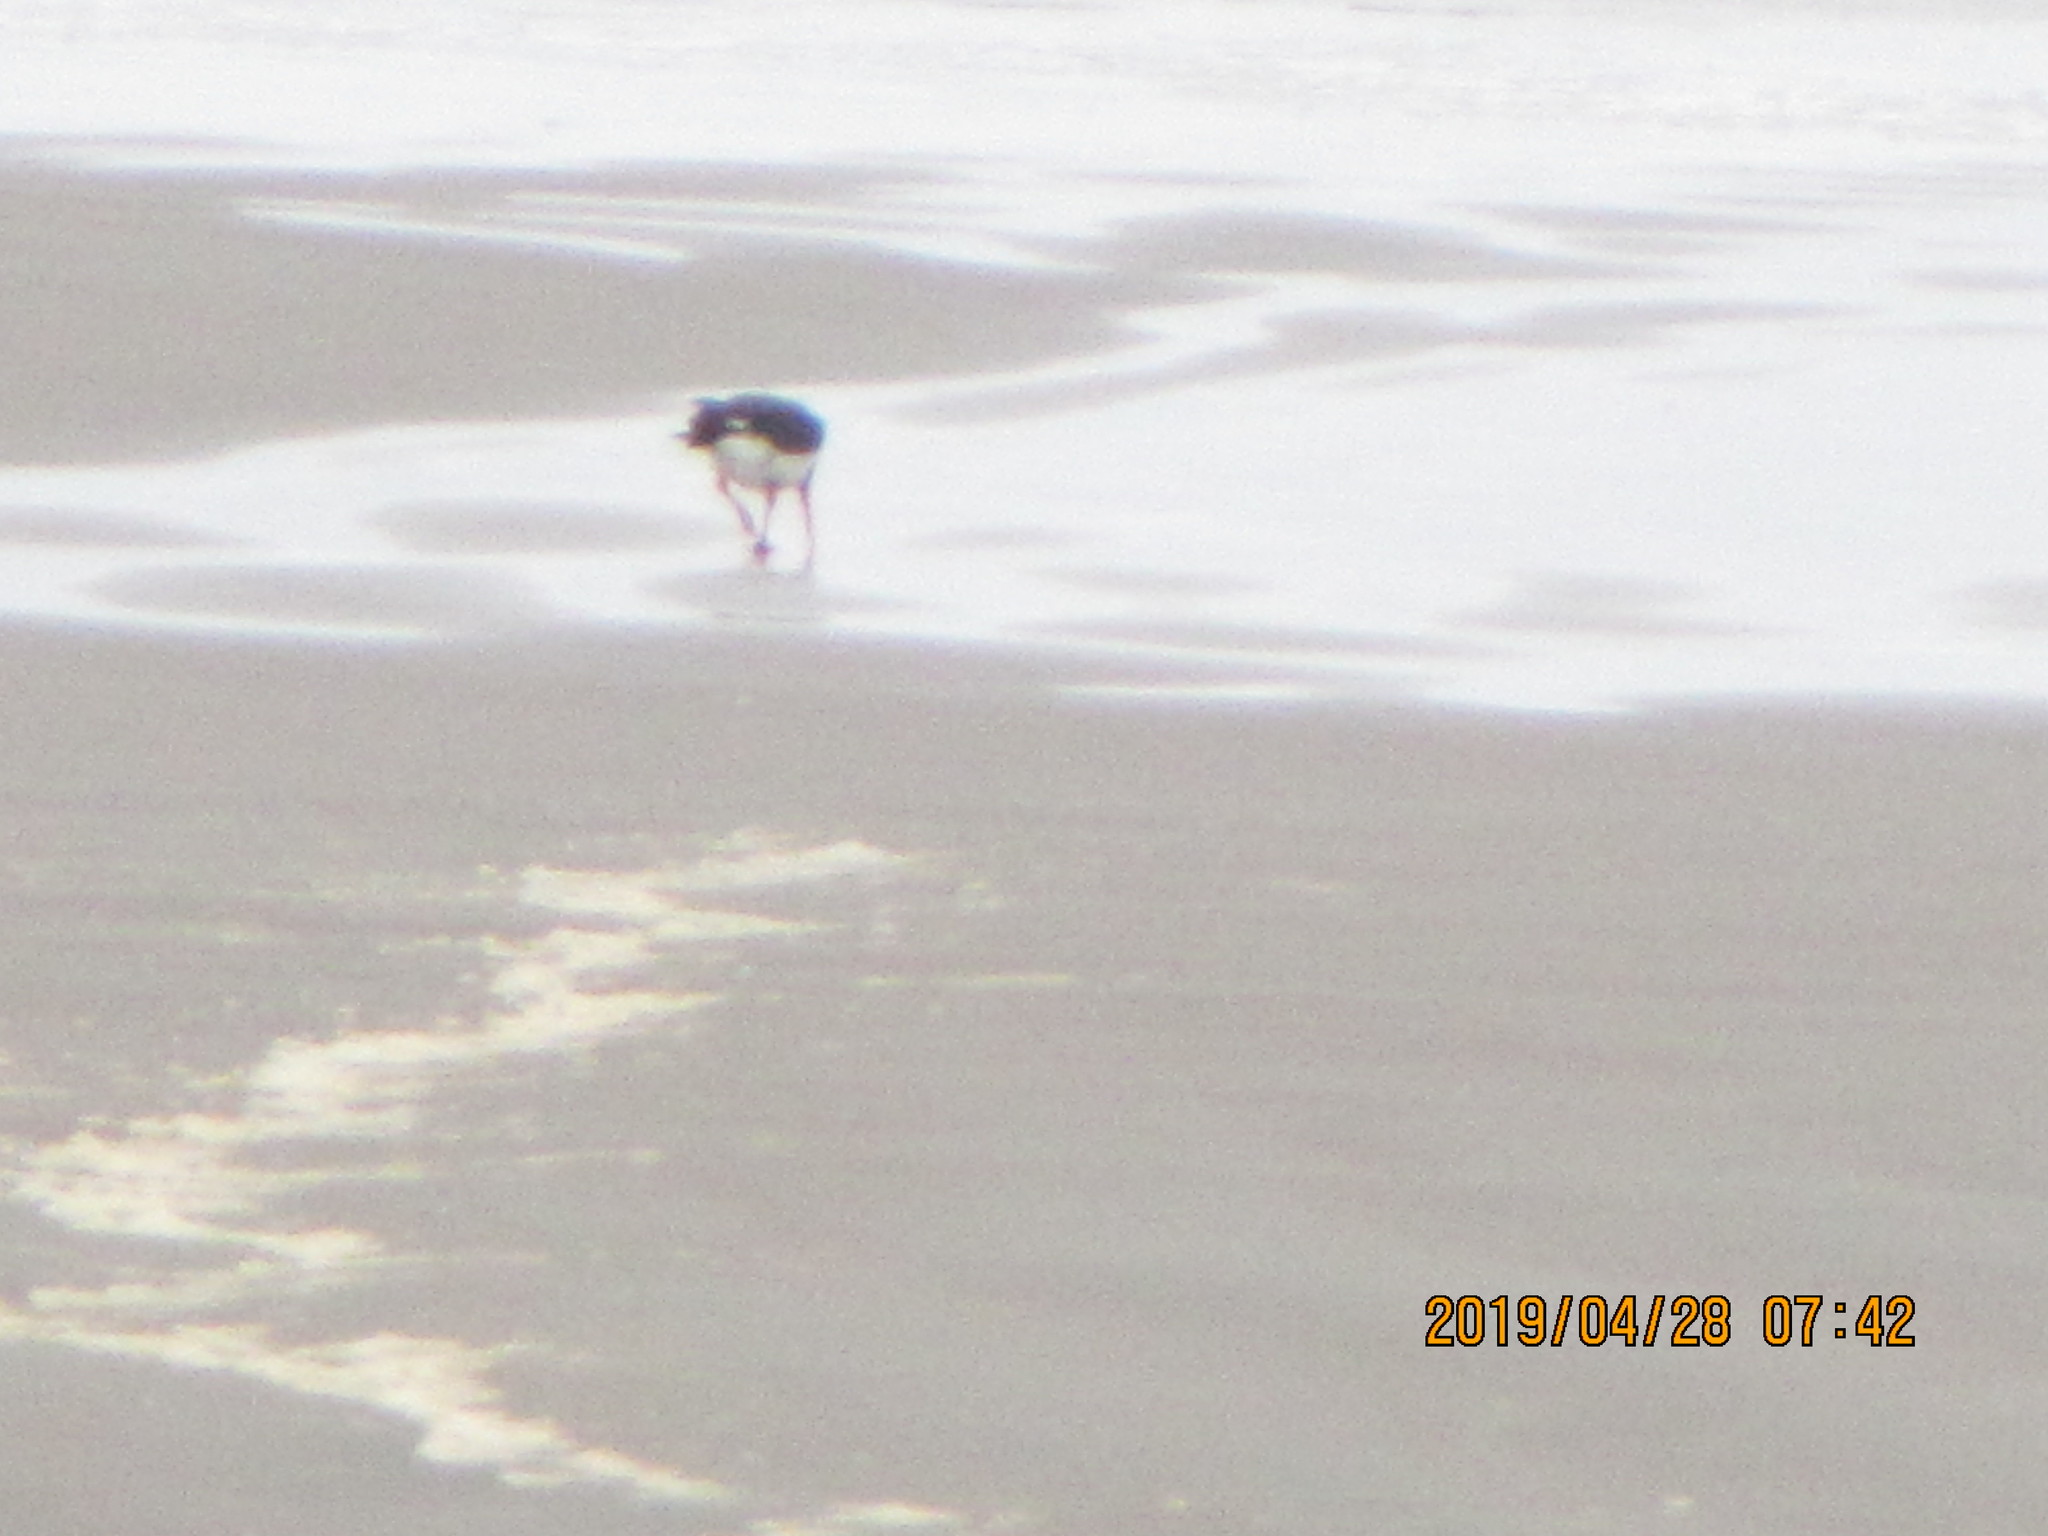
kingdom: Animalia
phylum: Chordata
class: Aves
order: Charadriiformes
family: Haematopodidae
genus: Haematopus
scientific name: Haematopus
